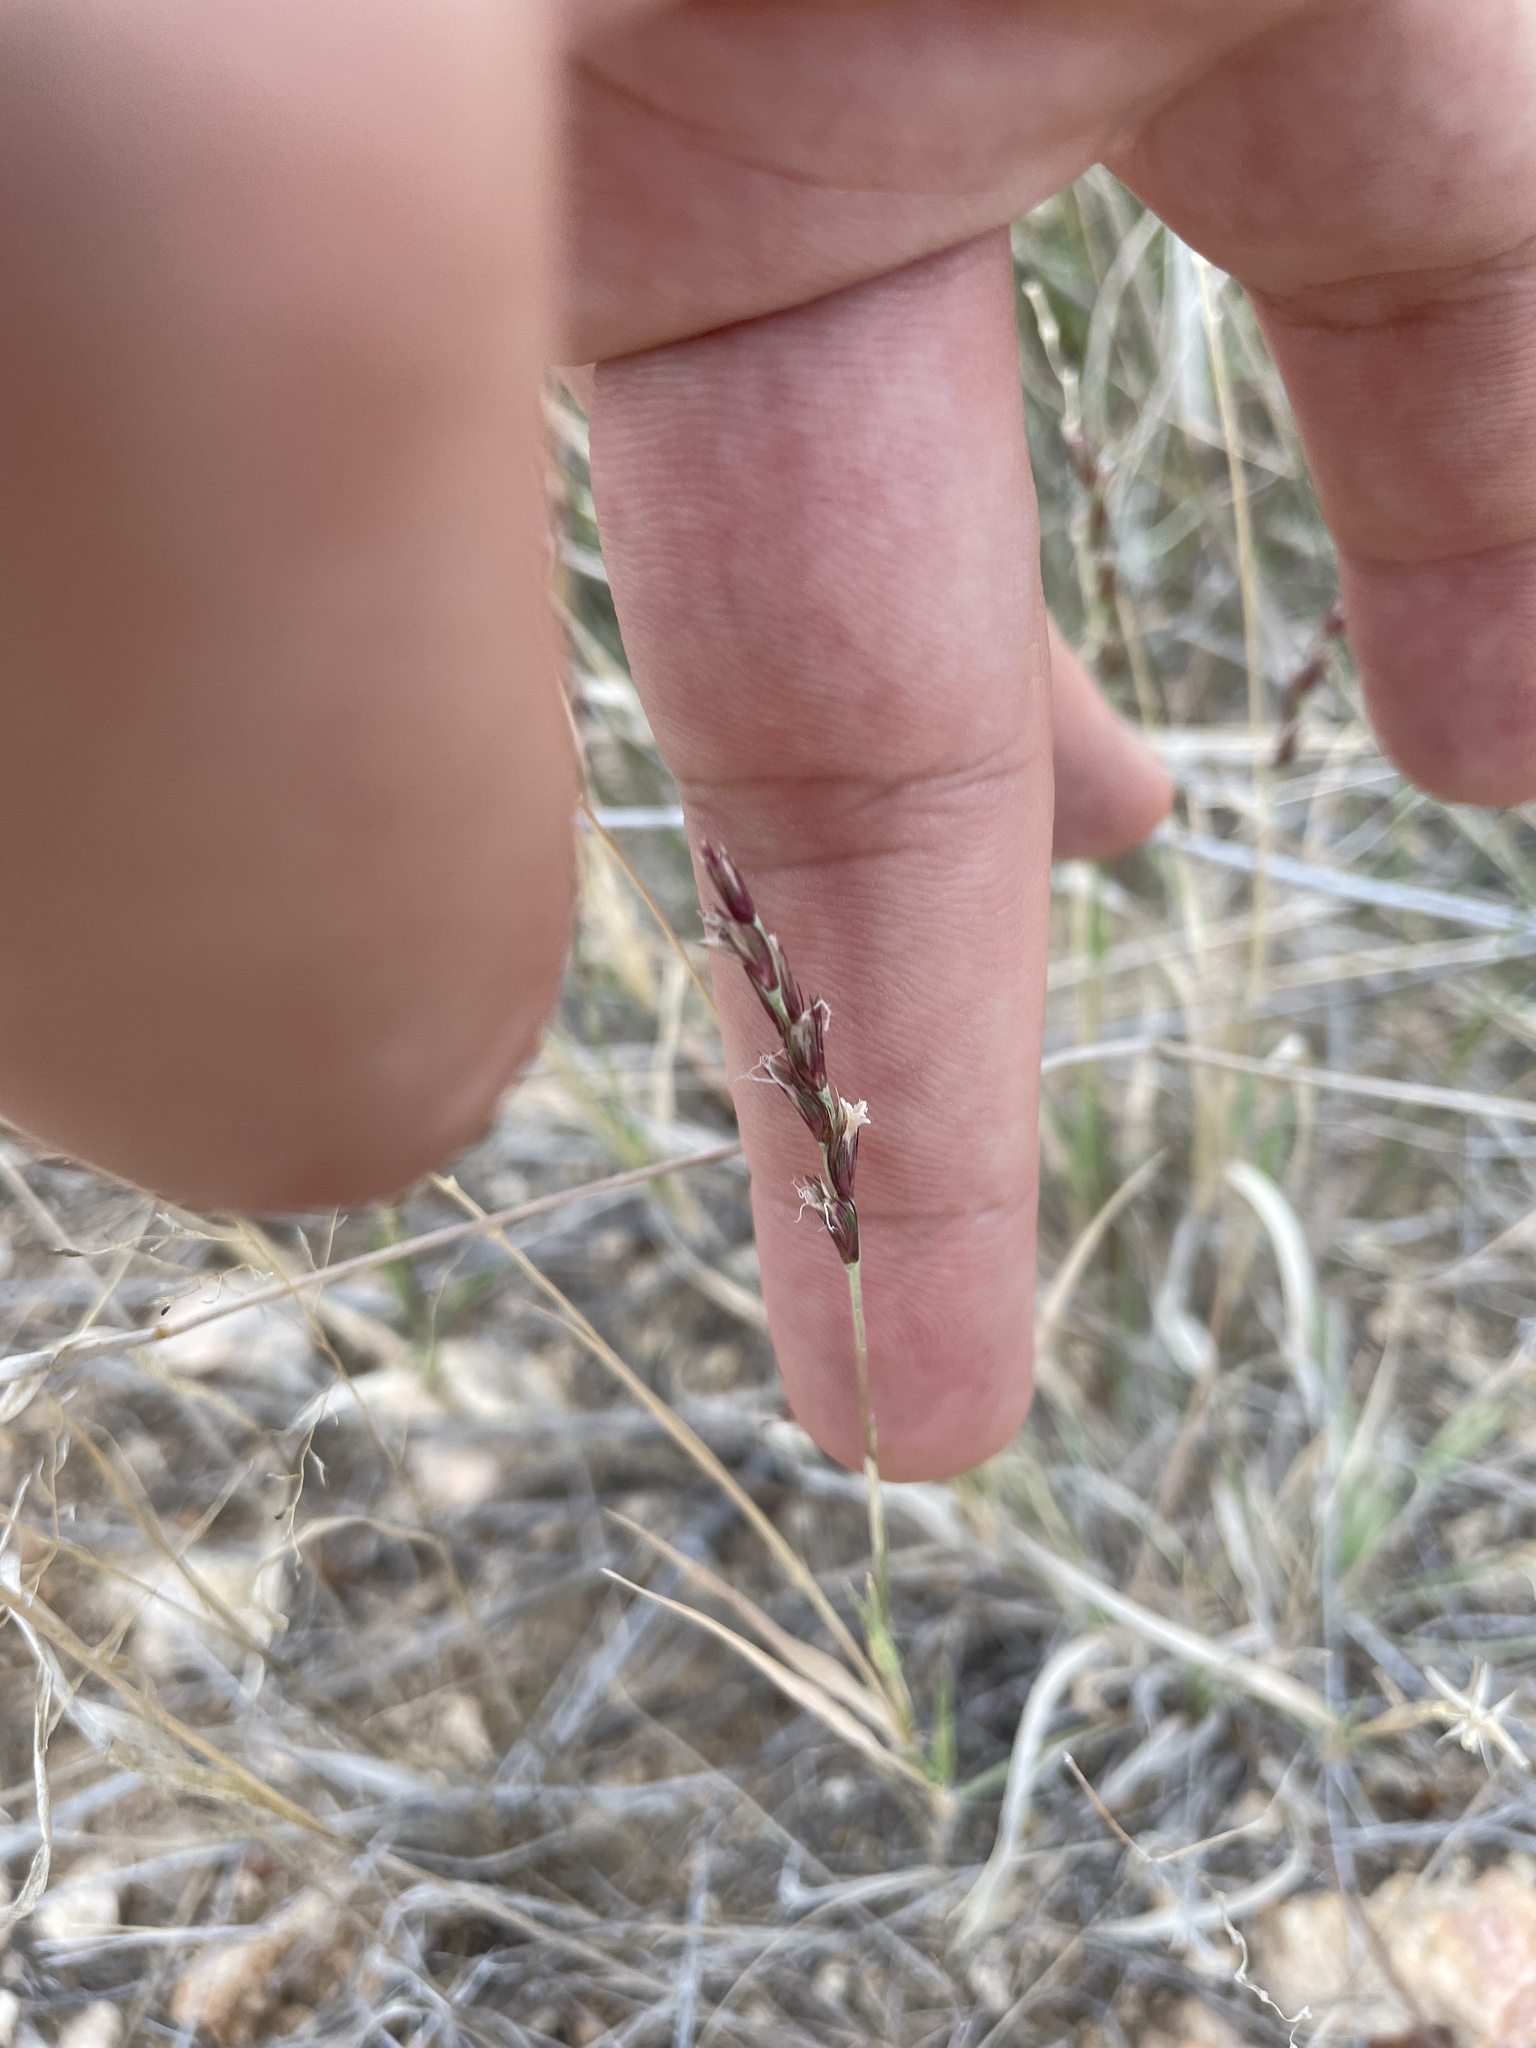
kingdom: Plantae
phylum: Tracheophyta
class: Liliopsida
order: Poales
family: Poaceae
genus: Hilaria
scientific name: Hilaria belangeri
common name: Curly-mesquite
